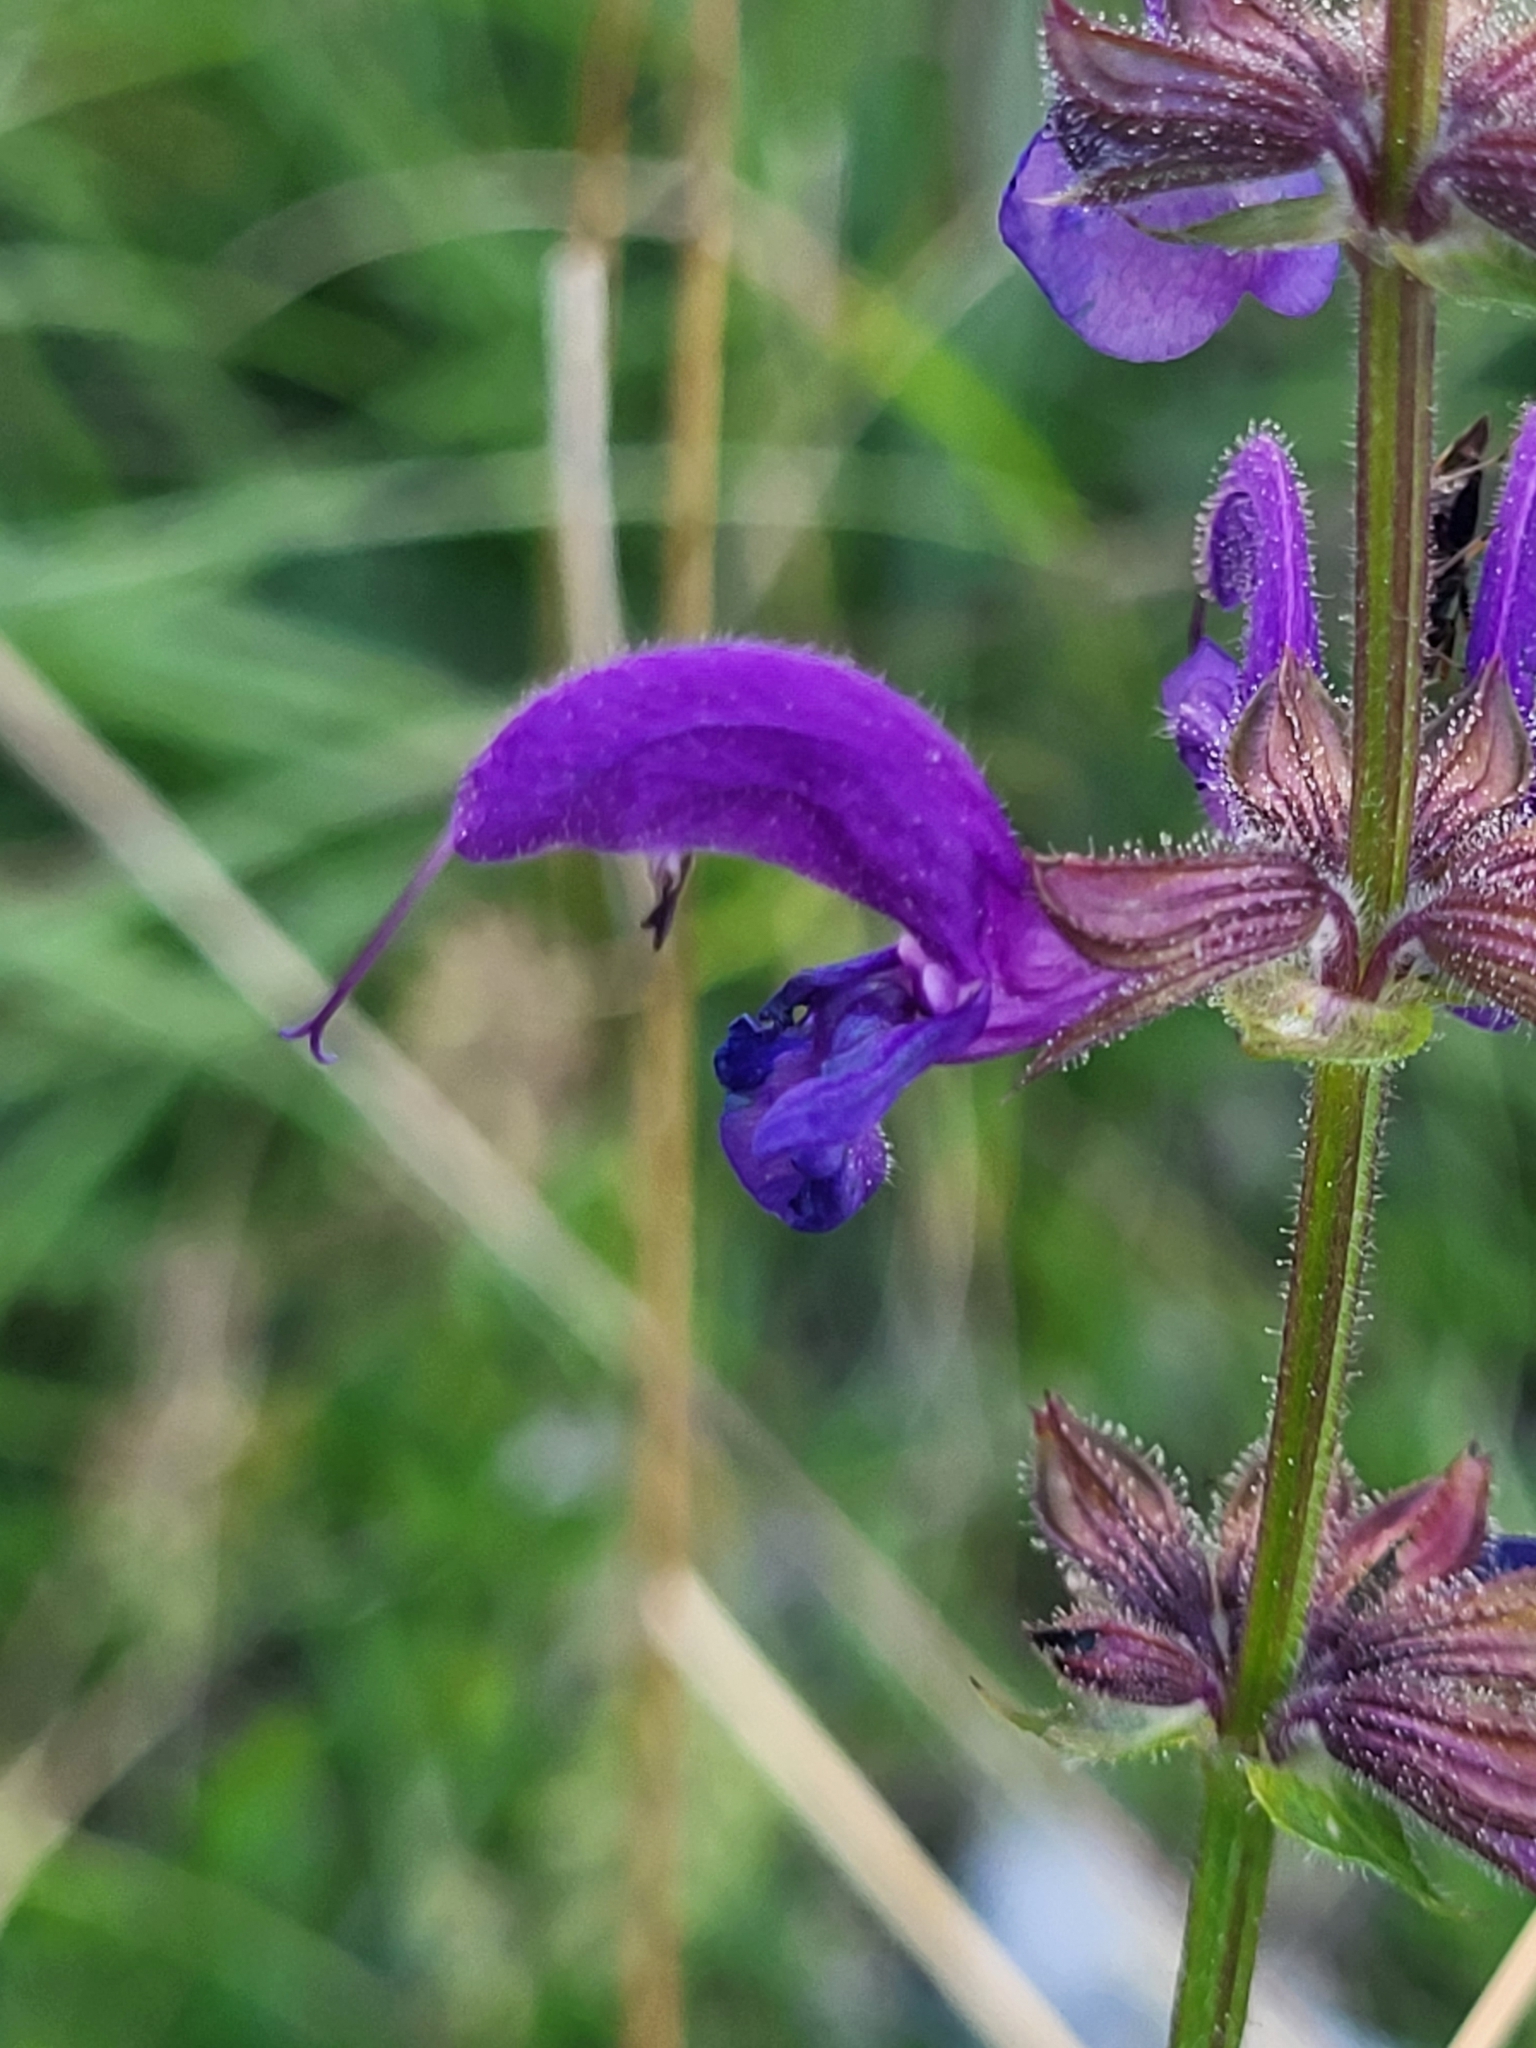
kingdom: Plantae
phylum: Tracheophyta
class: Magnoliopsida
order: Lamiales
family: Lamiaceae
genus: Salvia
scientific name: Salvia pratensis
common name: Meadow sage
